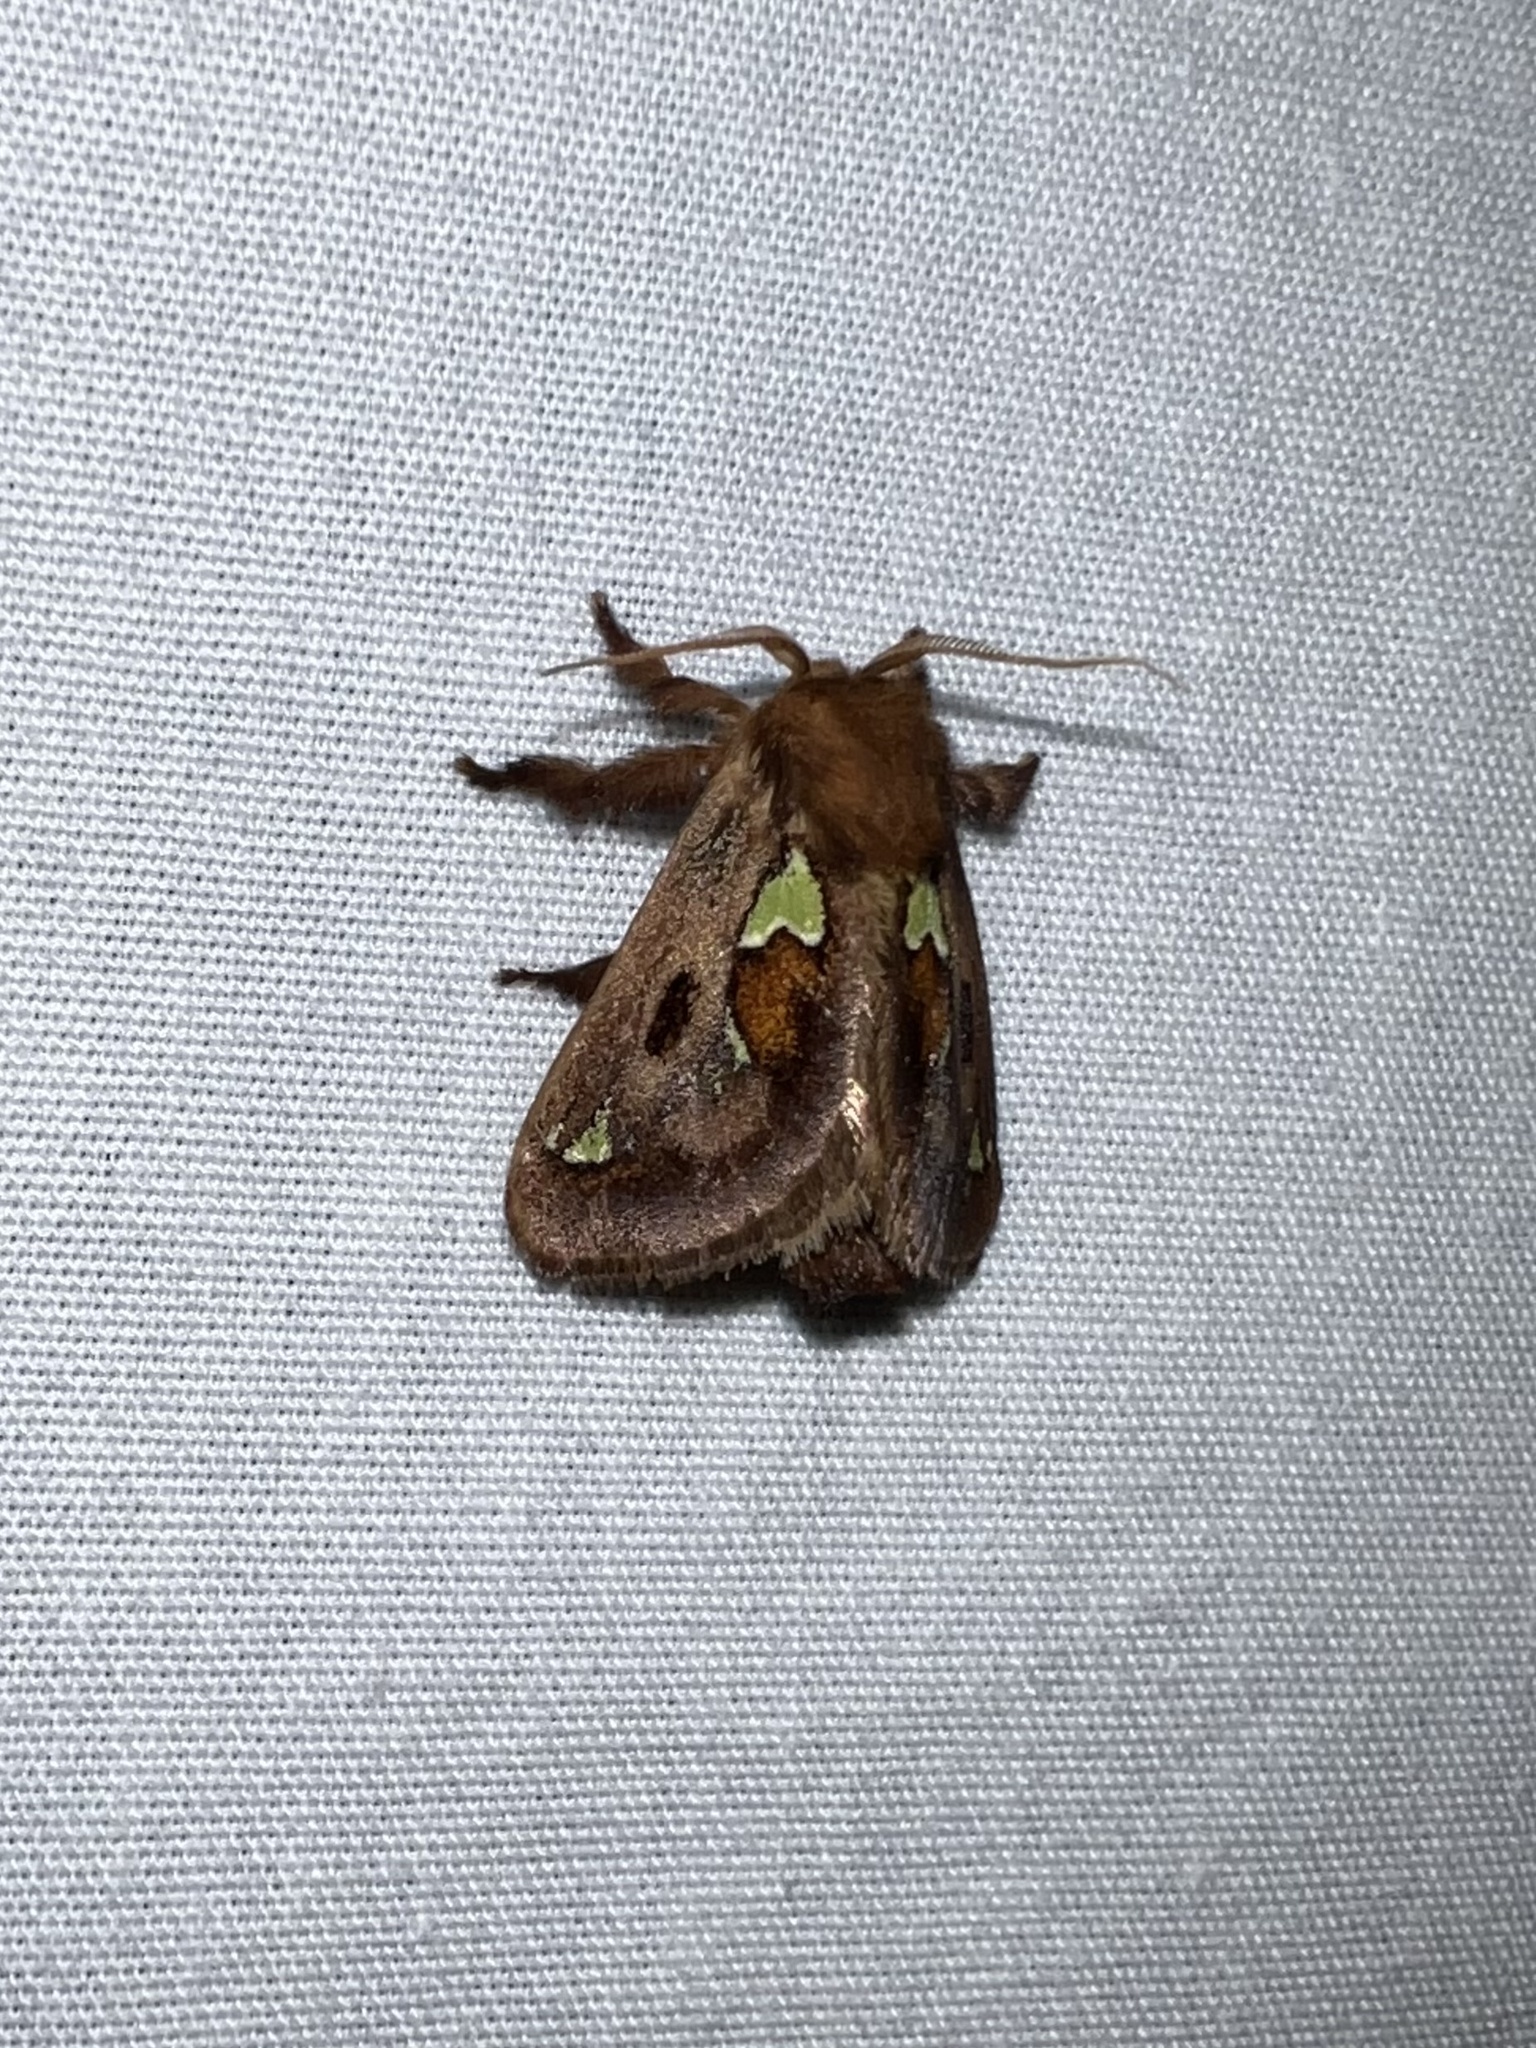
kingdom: Animalia
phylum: Arthropoda
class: Insecta
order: Lepidoptera
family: Limacodidae
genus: Euclea
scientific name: Euclea delphinii
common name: Spiny oak-slug moth
